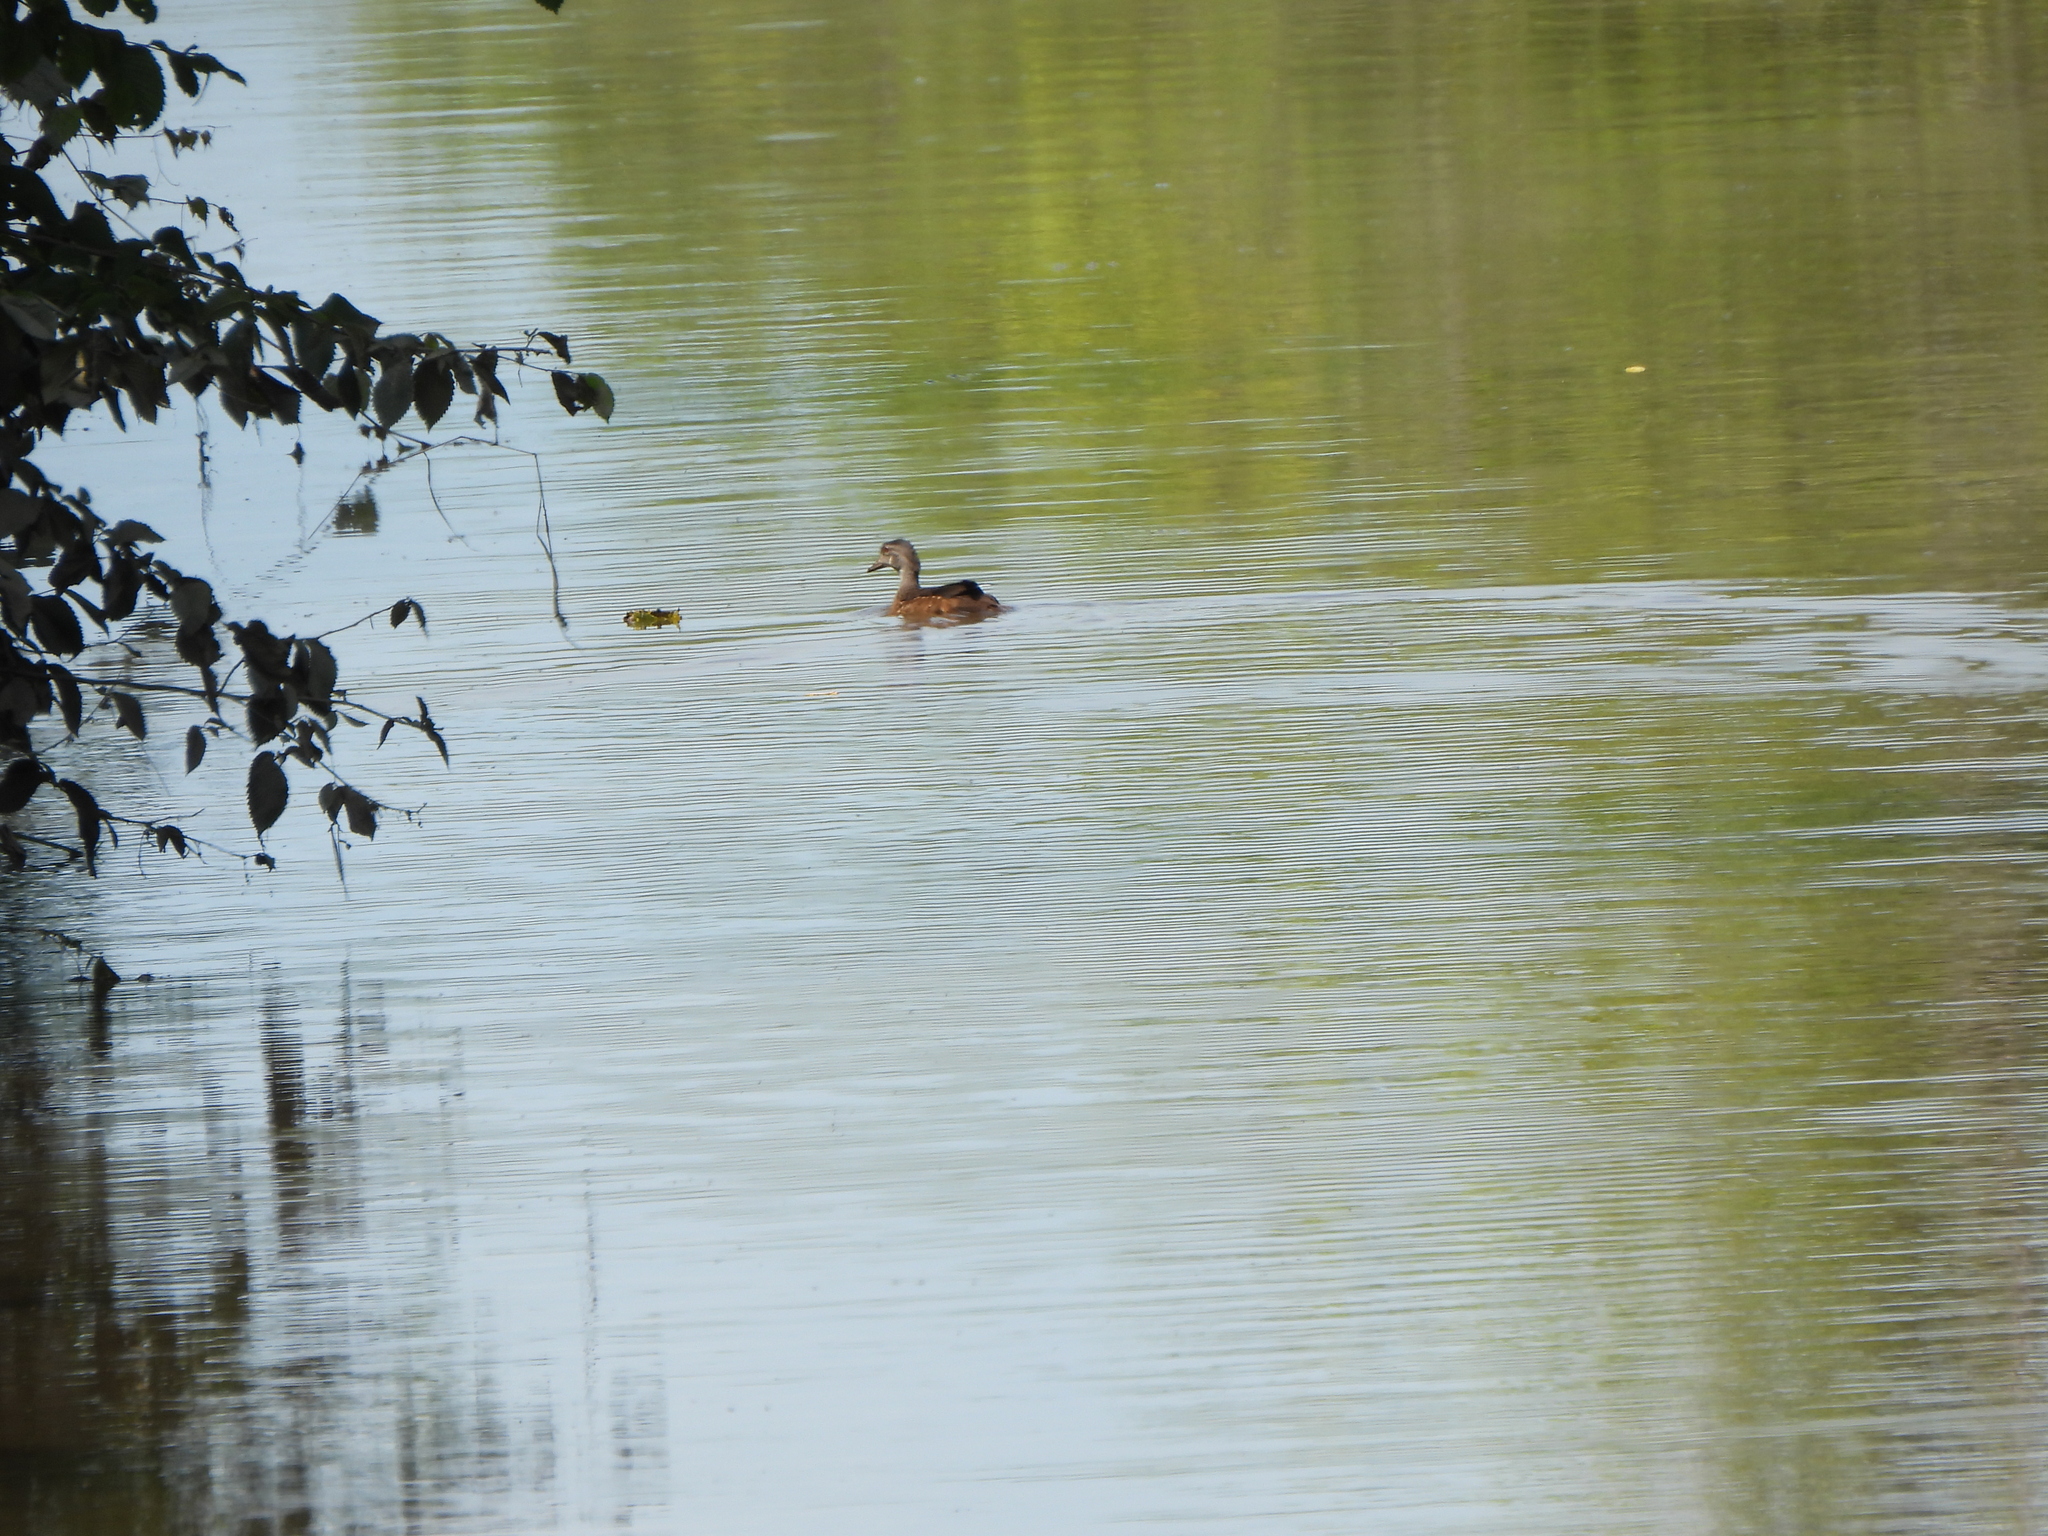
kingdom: Animalia
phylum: Chordata
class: Aves
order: Anseriformes
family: Anatidae
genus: Aix
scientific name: Aix sponsa
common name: Wood duck
